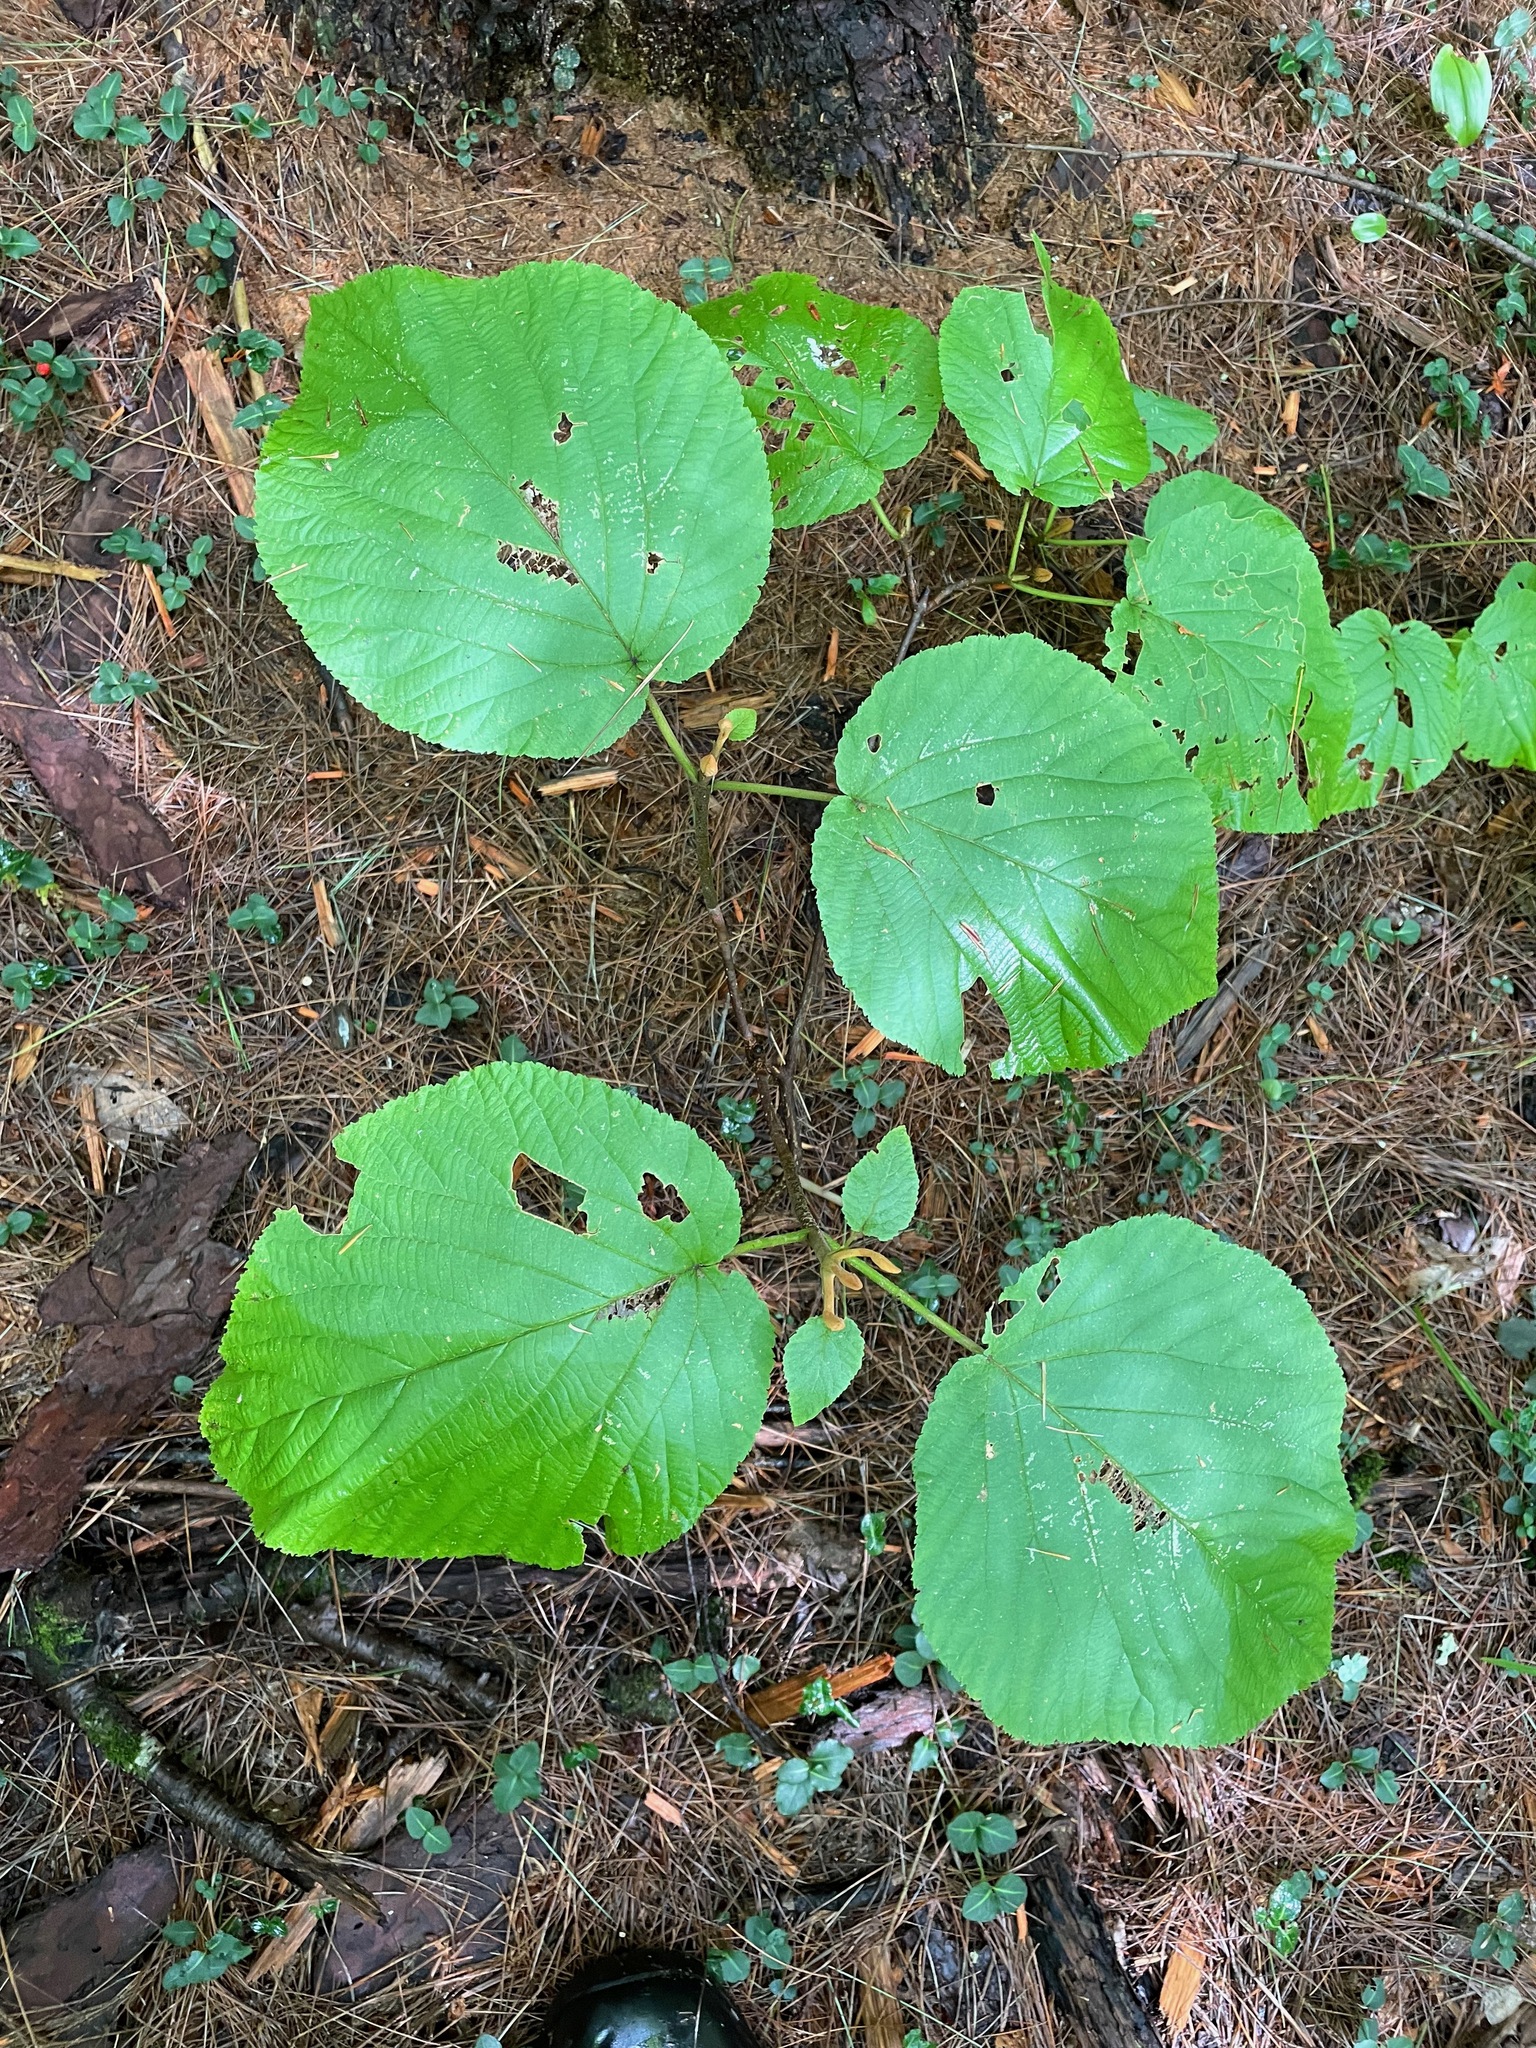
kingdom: Plantae
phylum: Tracheophyta
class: Magnoliopsida
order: Dipsacales
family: Viburnaceae
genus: Viburnum
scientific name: Viburnum lantanoides
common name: Hobblebush
